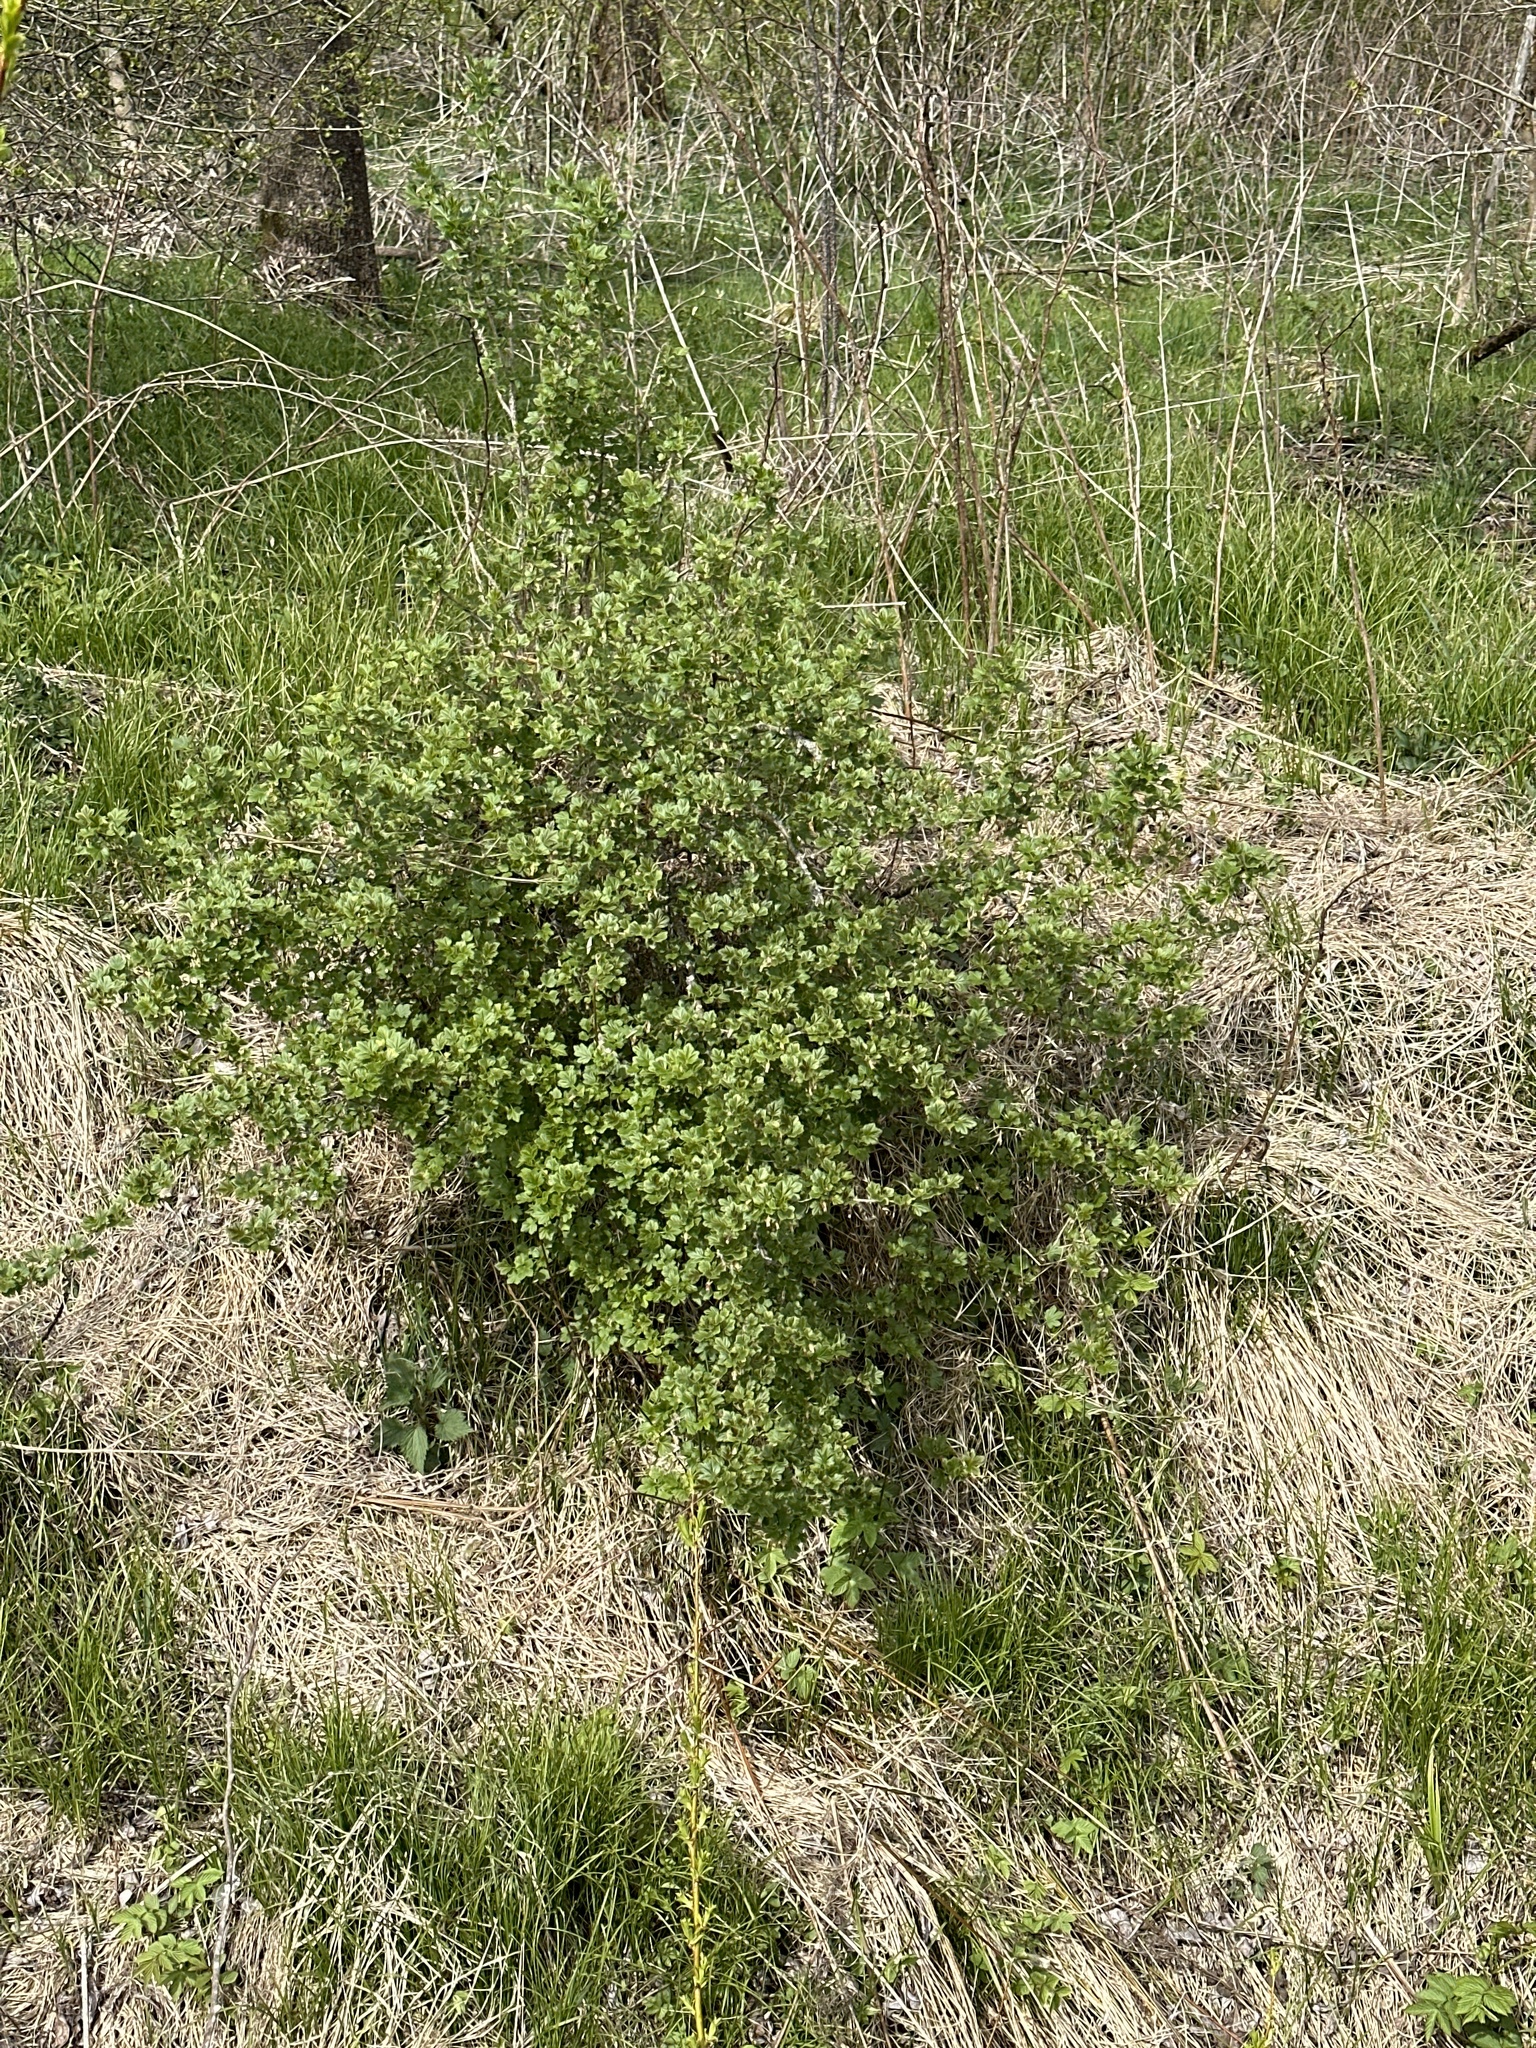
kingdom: Plantae
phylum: Tracheophyta
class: Magnoliopsida
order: Saxifragales
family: Grossulariaceae
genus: Ribes
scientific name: Ribes uva-crispa
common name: Gooseberry
